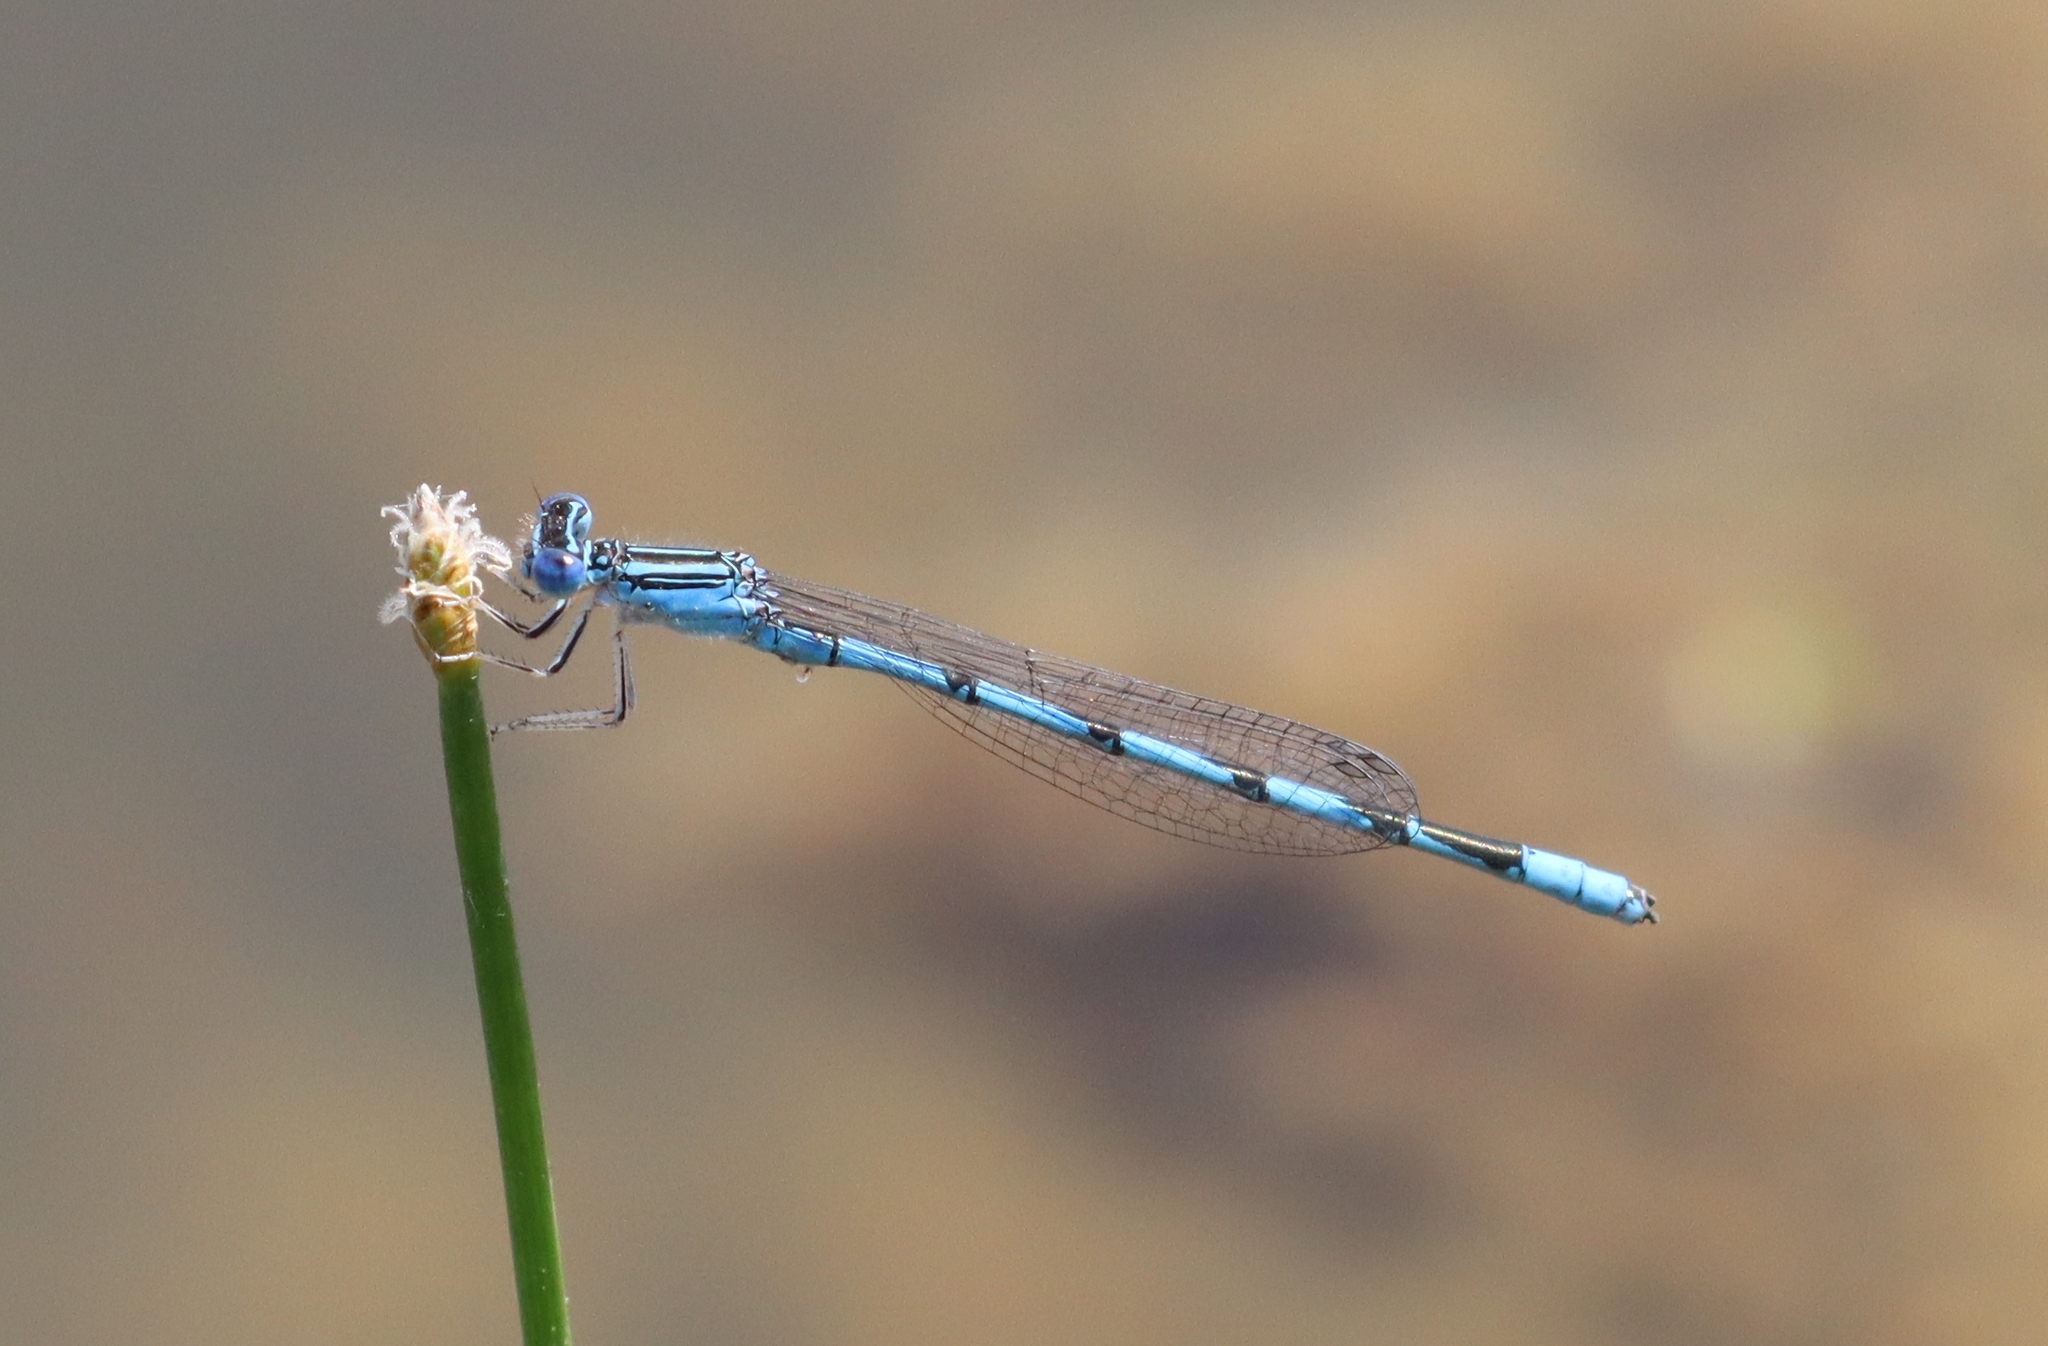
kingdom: Animalia
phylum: Arthropoda
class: Insecta
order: Odonata
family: Coenagrionidae
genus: Enallagma
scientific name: Enallagma basidens
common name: Double-striped bluet
